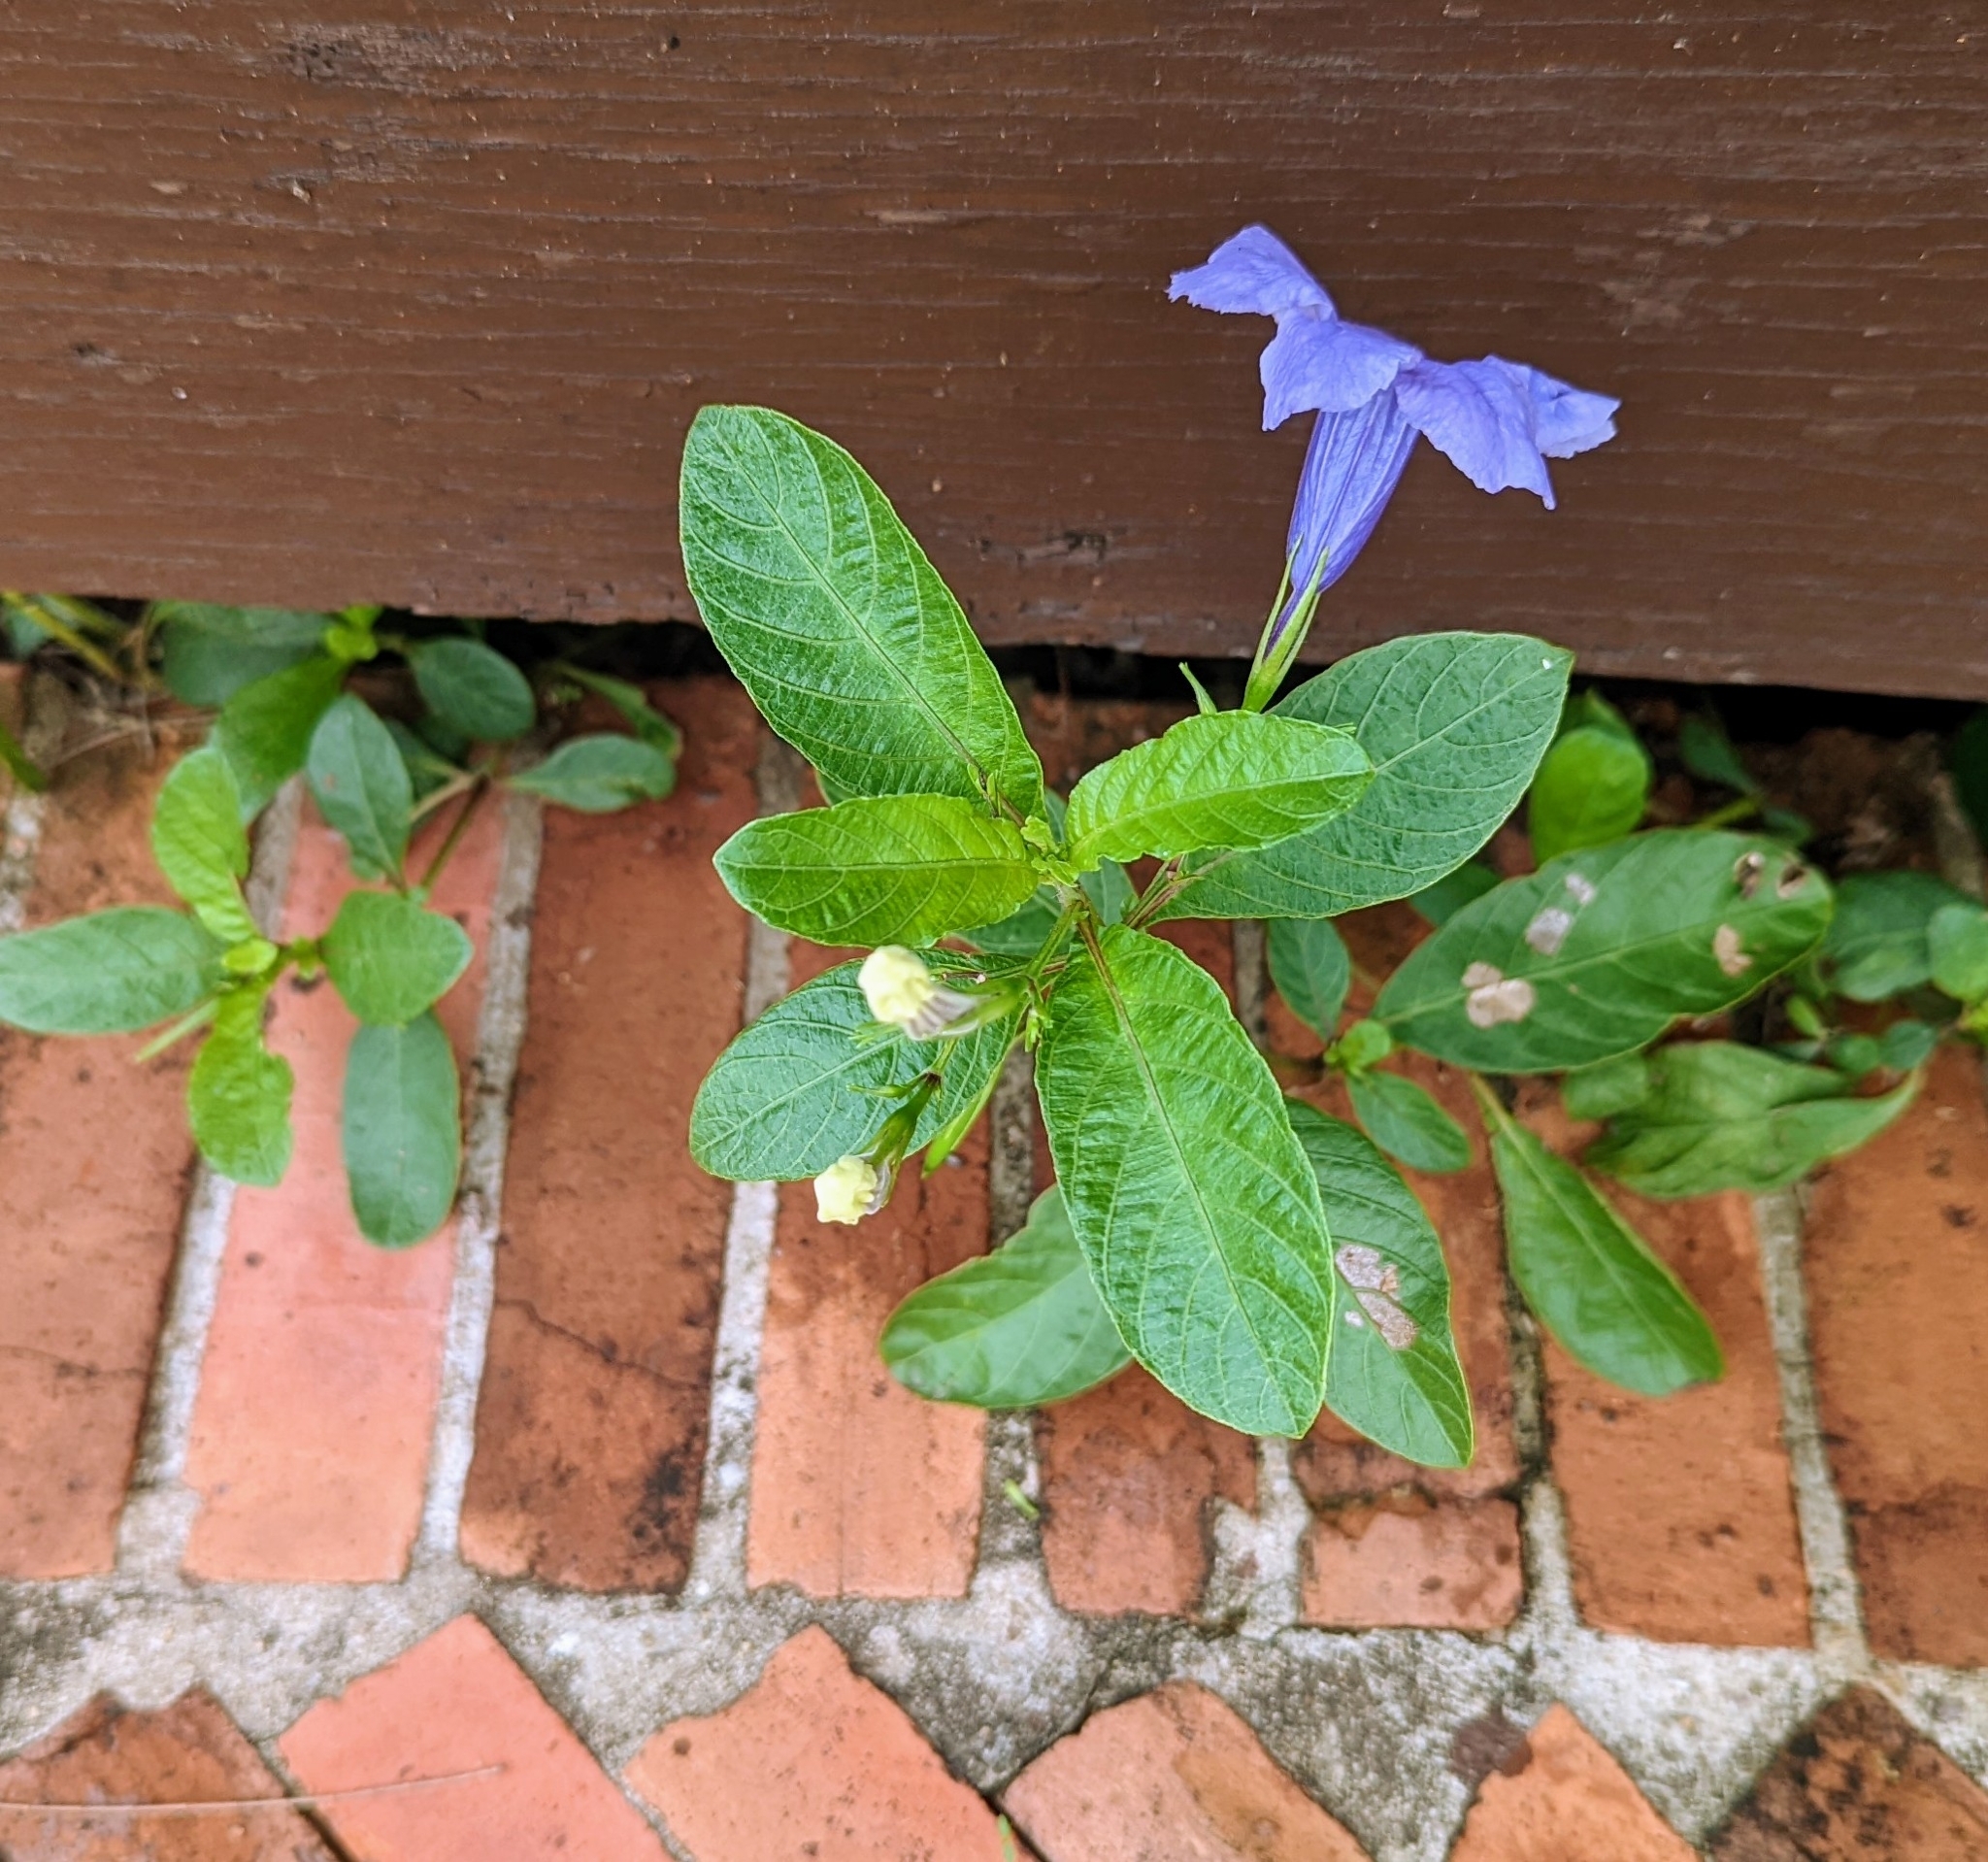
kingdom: Plantae
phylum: Tracheophyta
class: Magnoliopsida
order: Lamiales
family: Acanthaceae
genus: Ruellia
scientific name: Ruellia tuberosa
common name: Devil's bit
